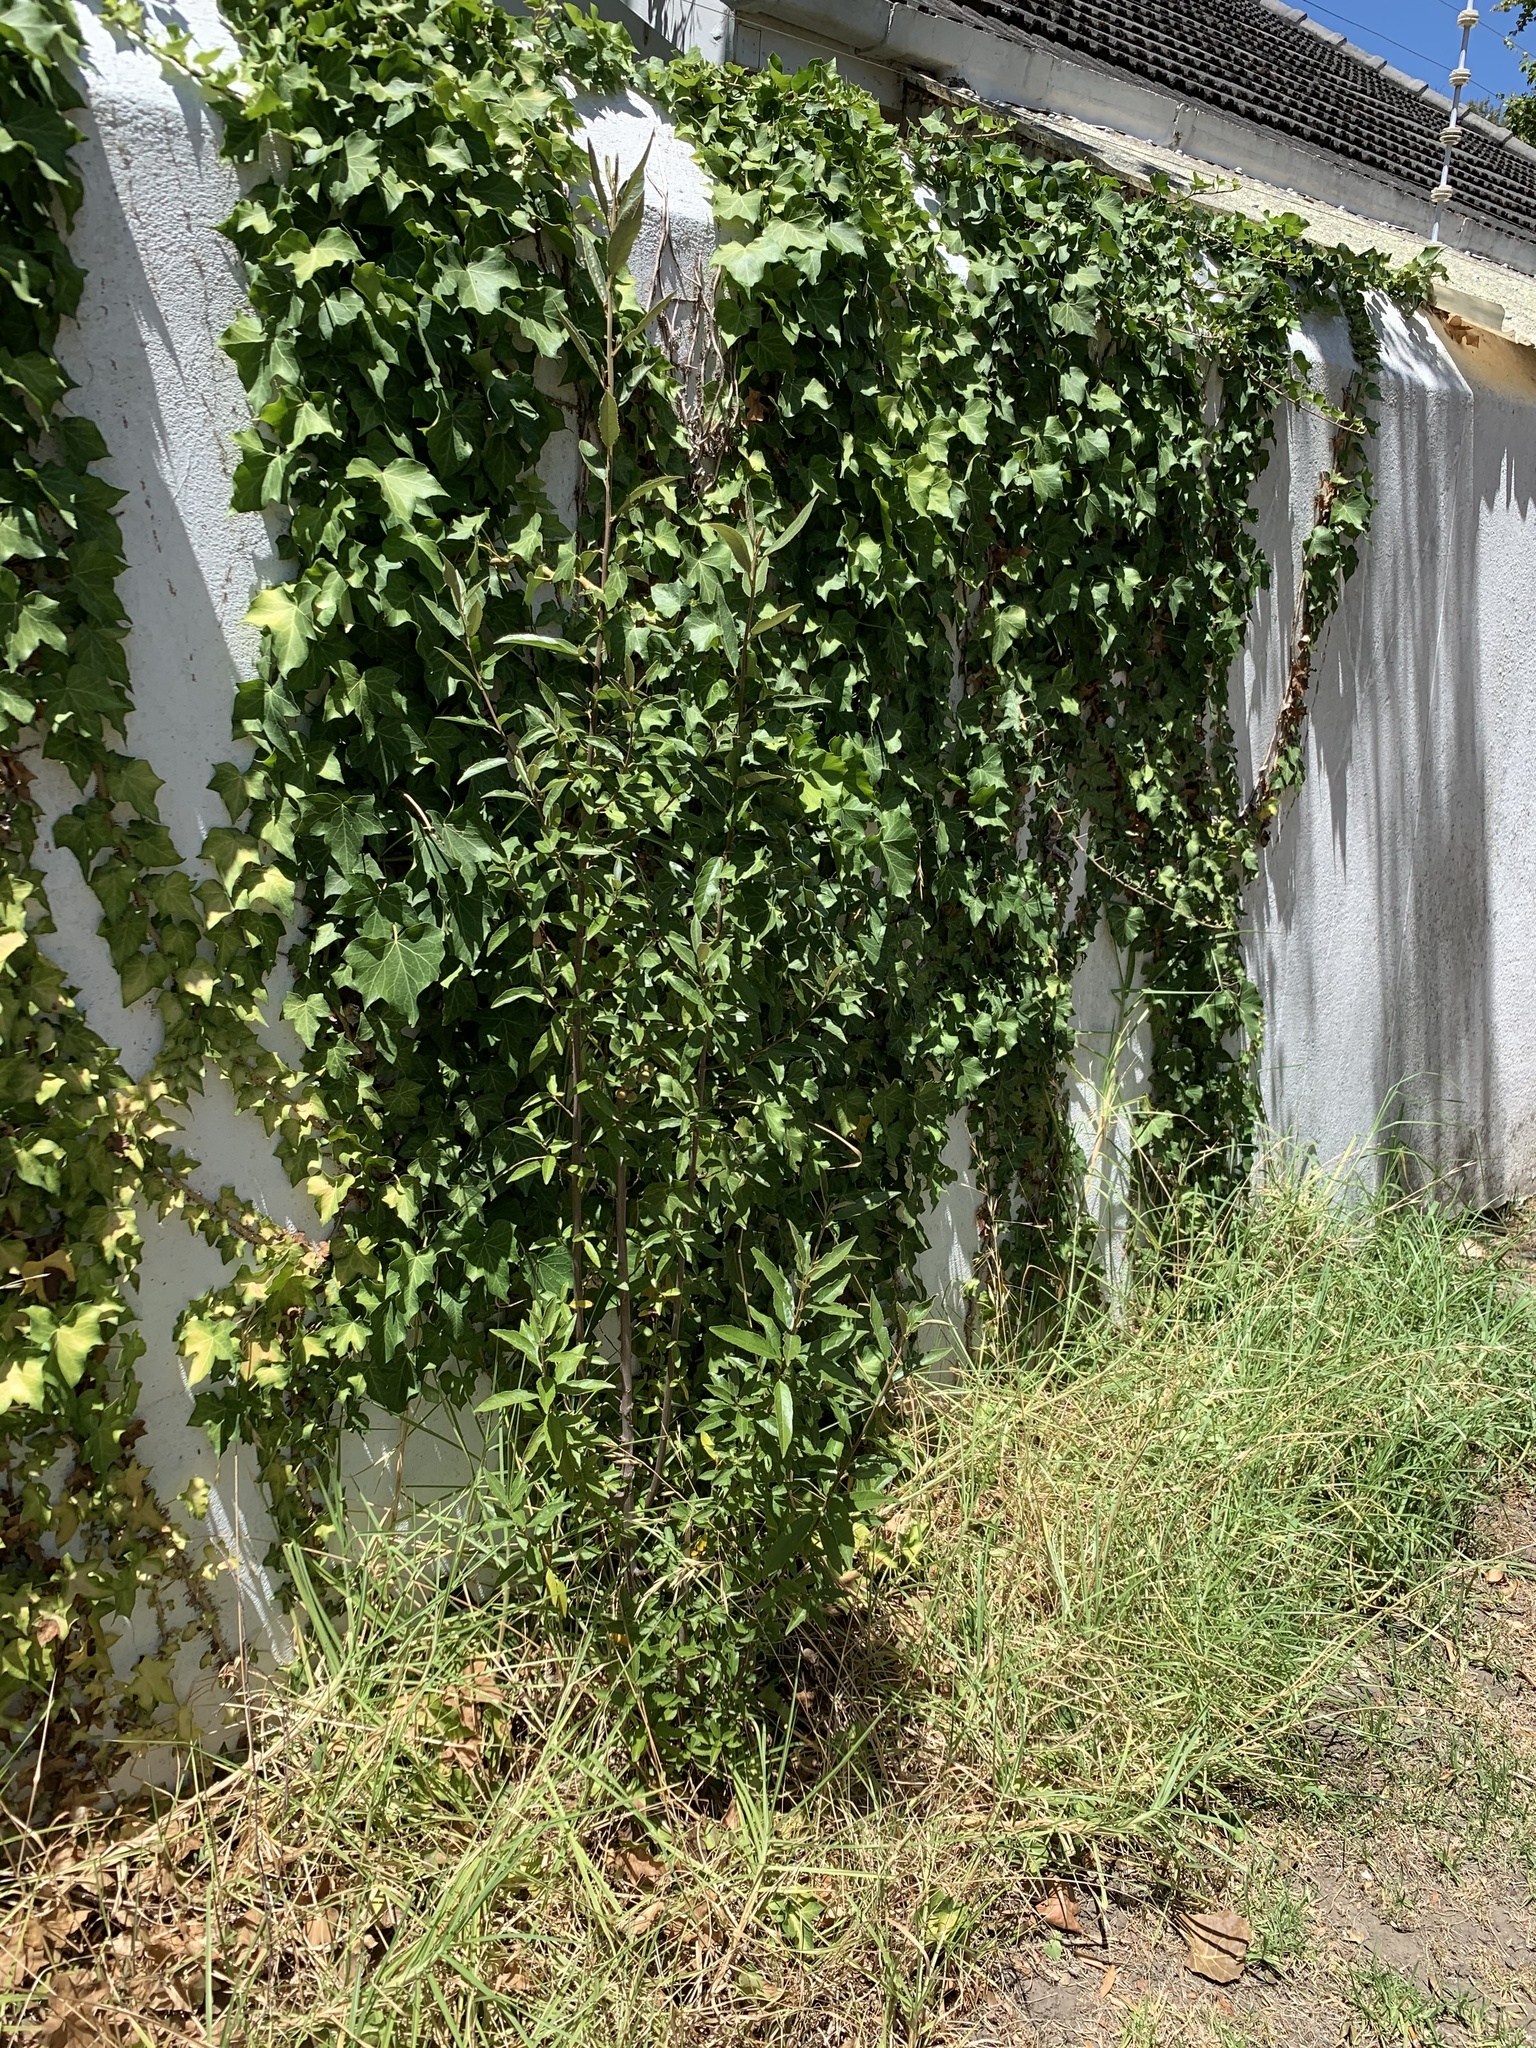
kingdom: Plantae
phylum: Tracheophyta
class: Magnoliopsida
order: Malpighiales
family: Achariaceae
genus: Kiggelaria
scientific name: Kiggelaria africana
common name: Wild peach
